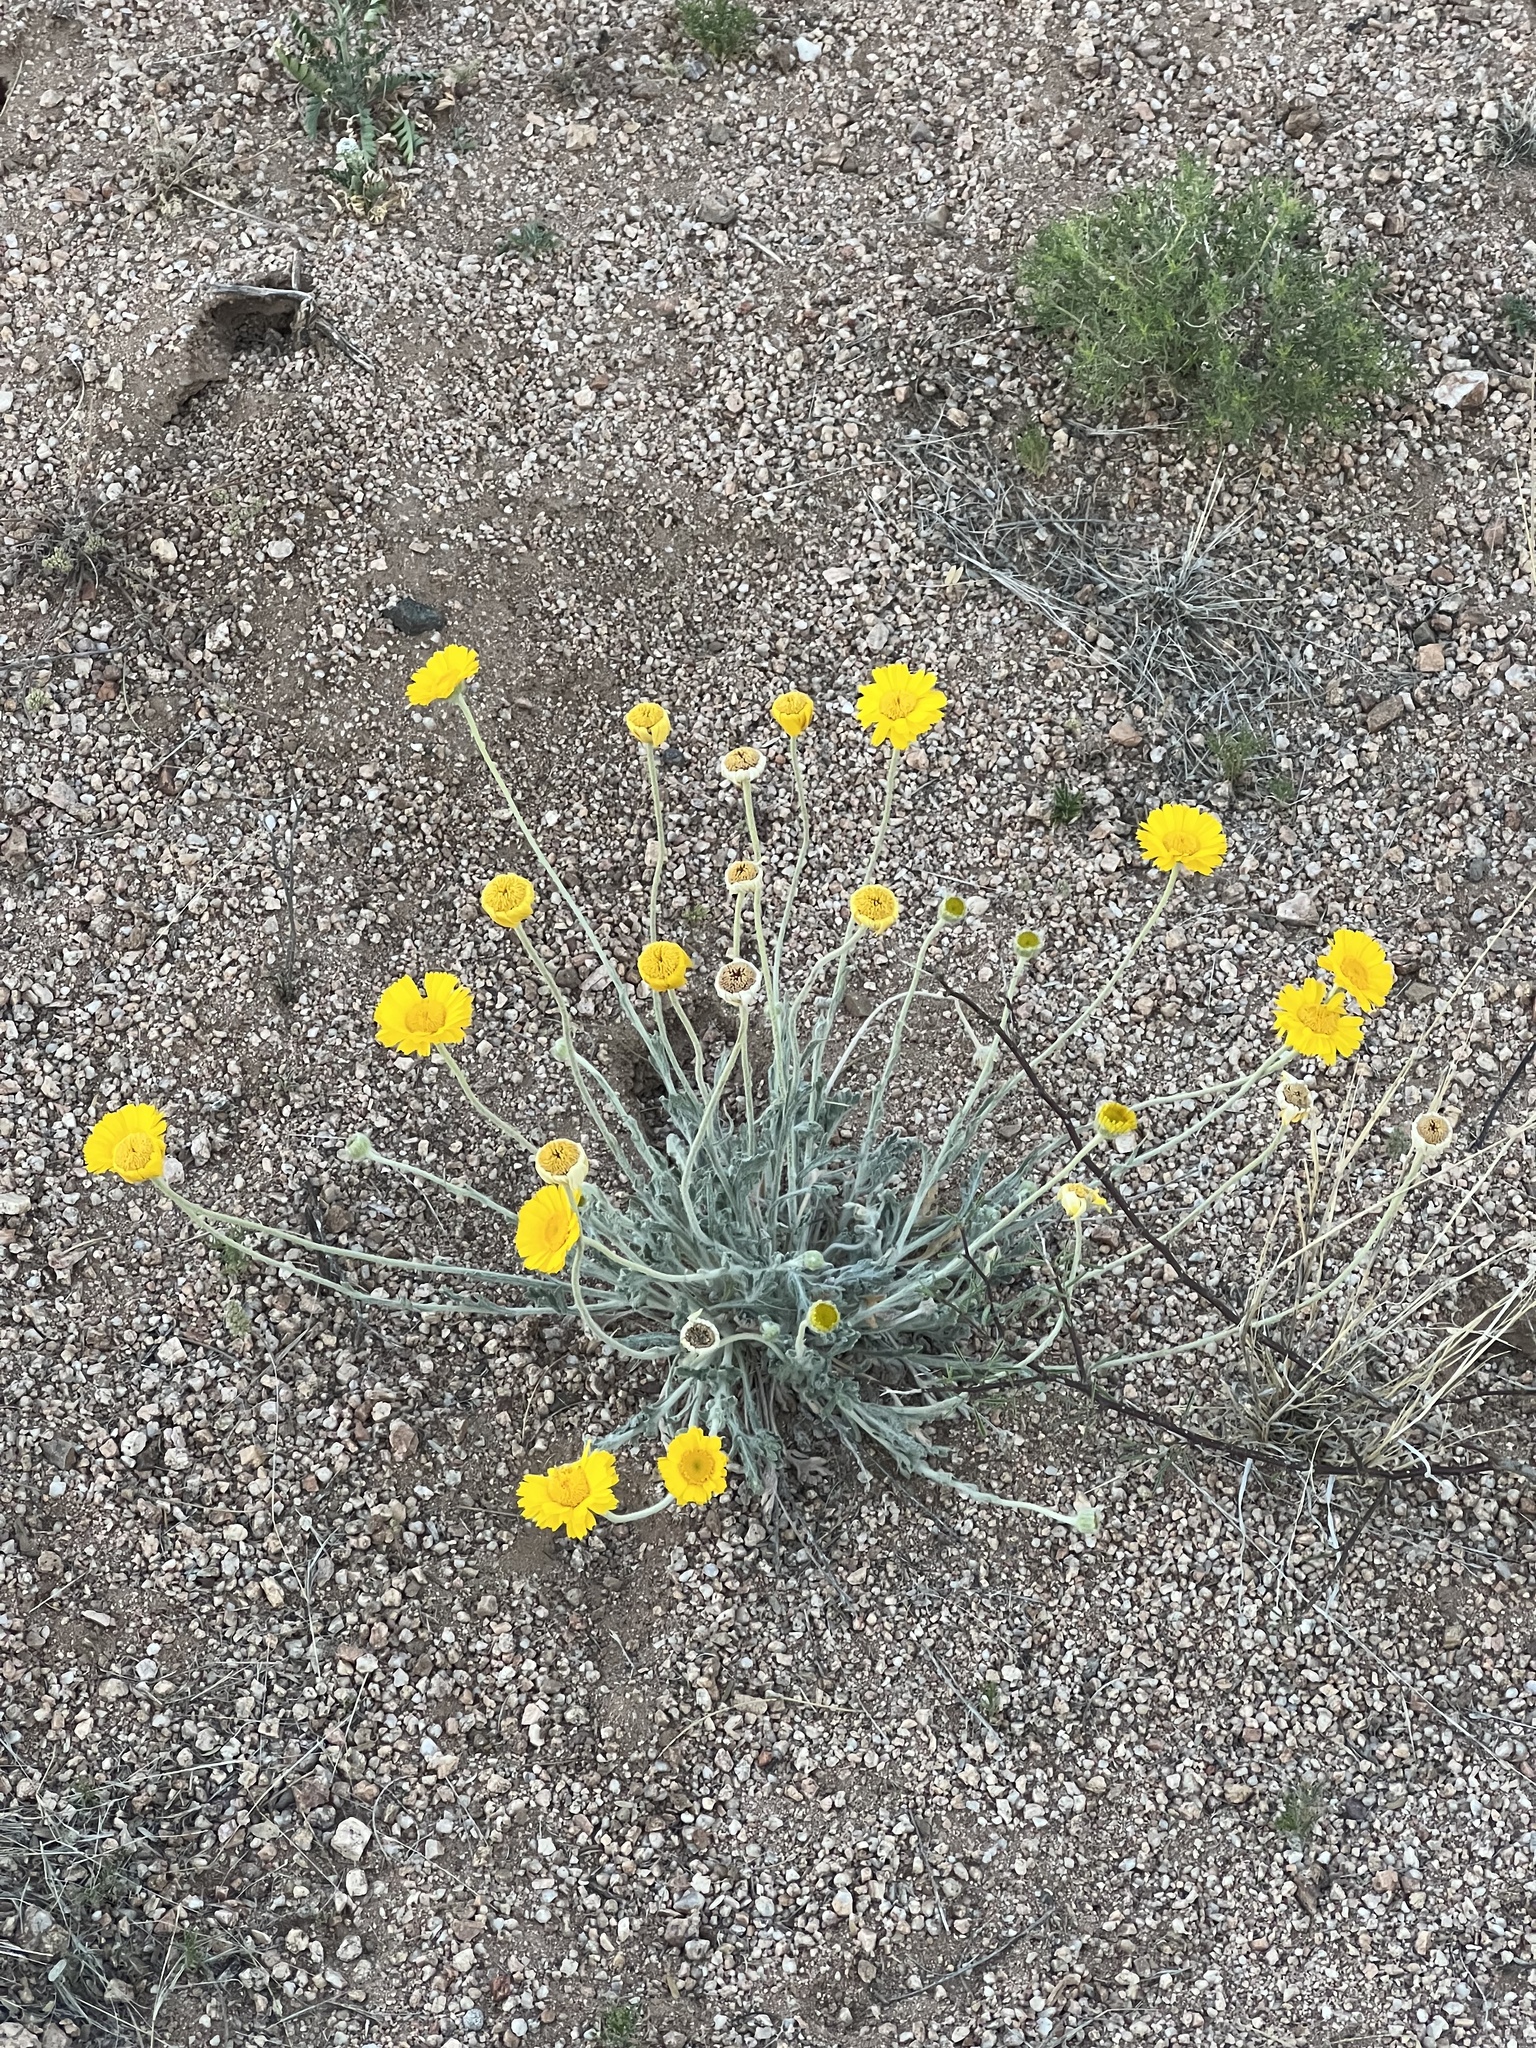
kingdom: Plantae
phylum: Tracheophyta
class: Magnoliopsida
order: Asterales
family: Asteraceae
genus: Baileya
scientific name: Baileya multiradiata
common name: Desert-marigold
